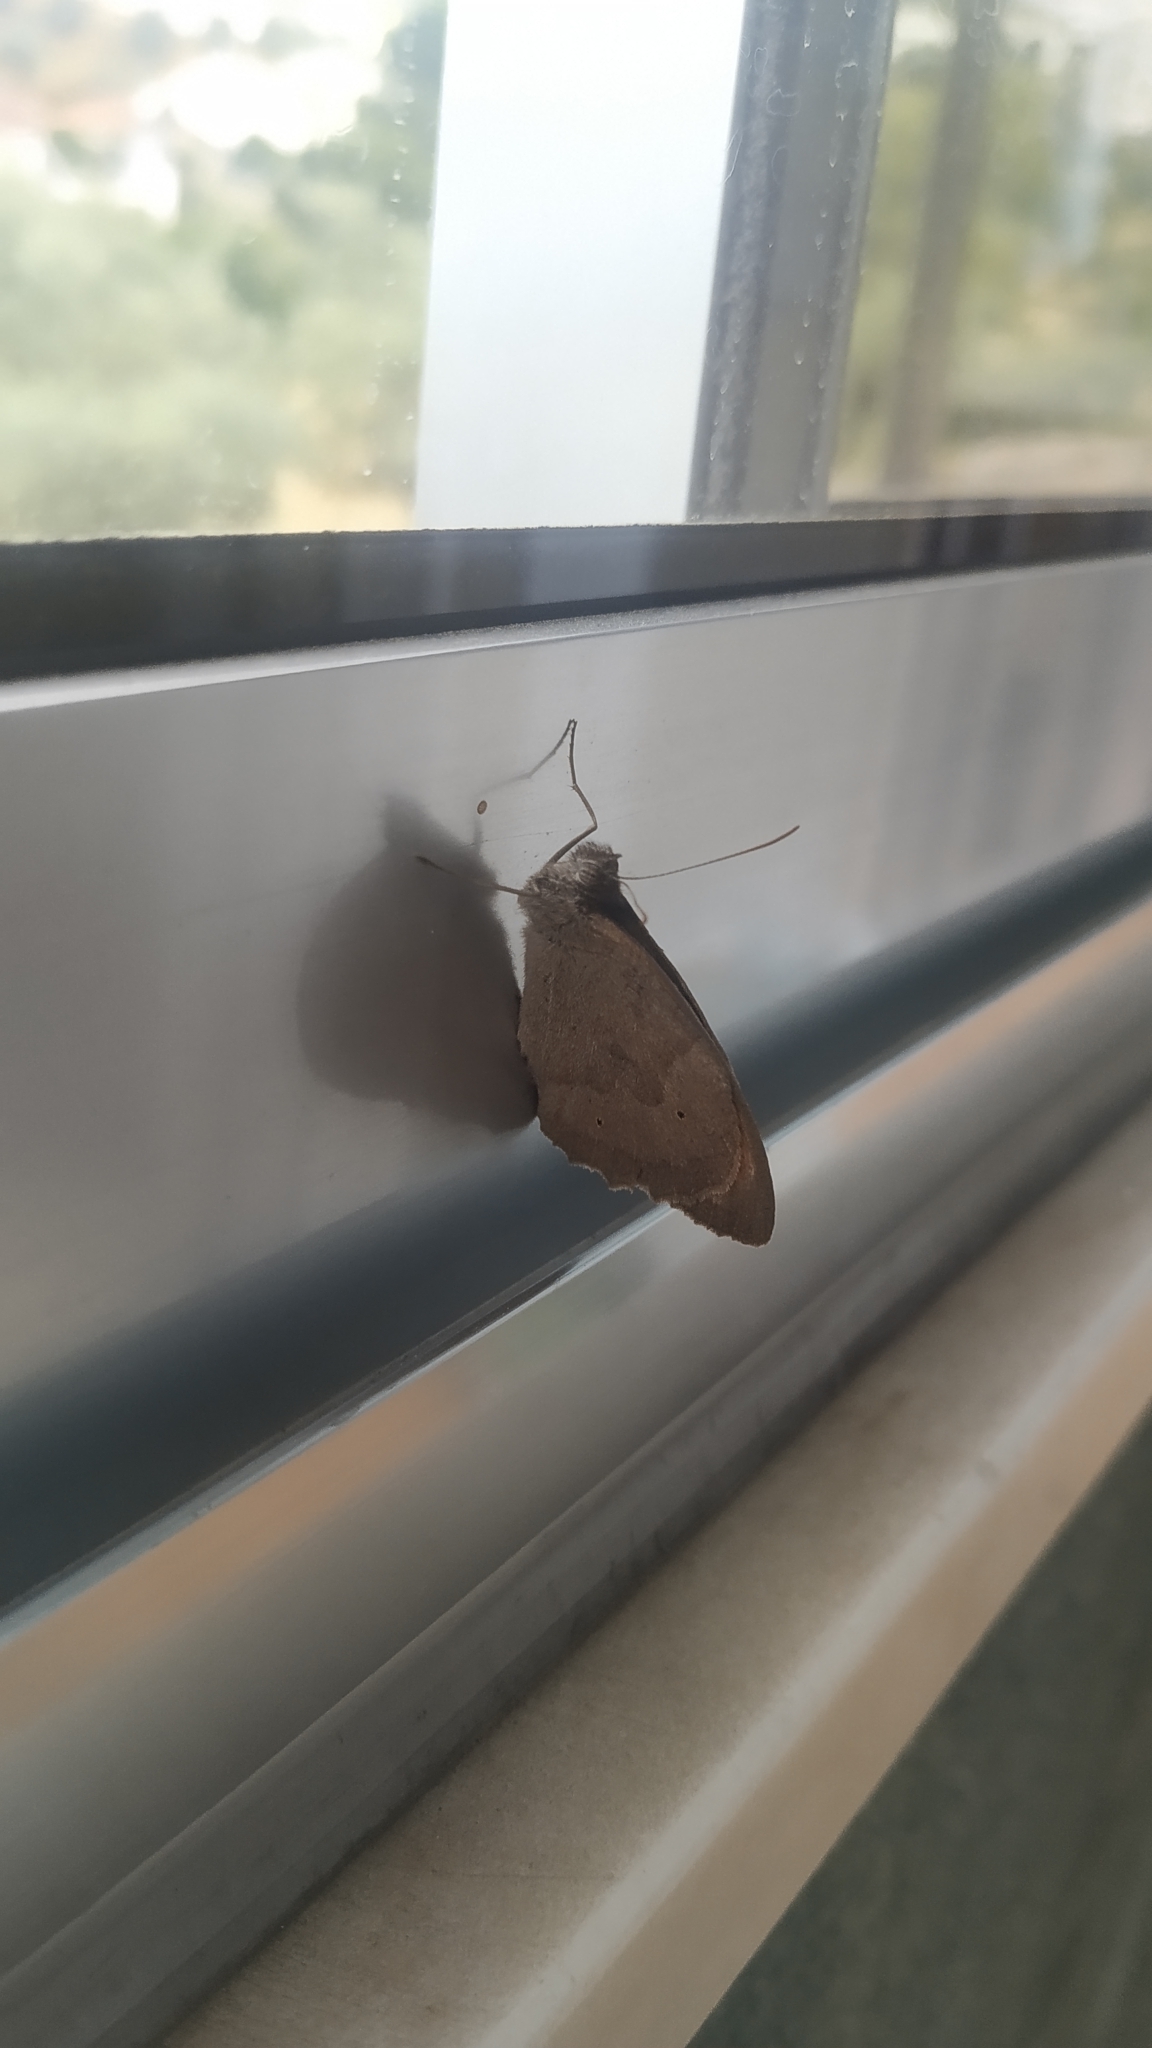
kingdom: Animalia
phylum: Arthropoda
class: Insecta
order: Lepidoptera
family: Nymphalidae
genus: Maniola
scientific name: Maniola jurtina
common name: Meadow brown
